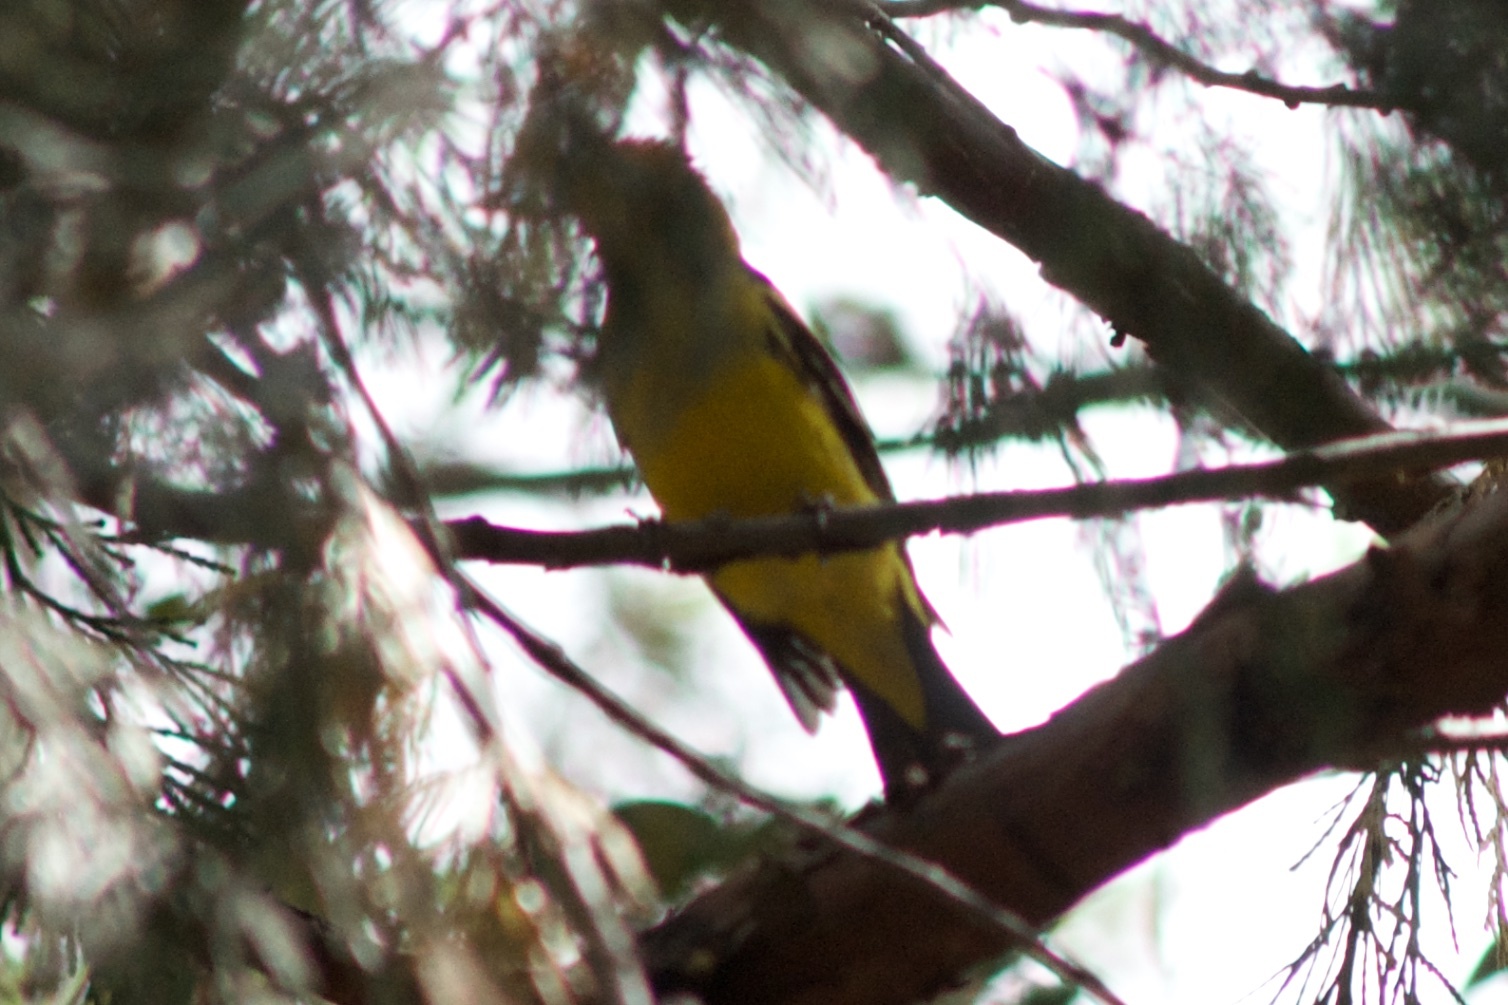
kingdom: Animalia
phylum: Chordata
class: Aves
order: Passeriformes
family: Cardinalidae
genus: Piranga
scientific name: Piranga ludoviciana
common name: Western tanager
